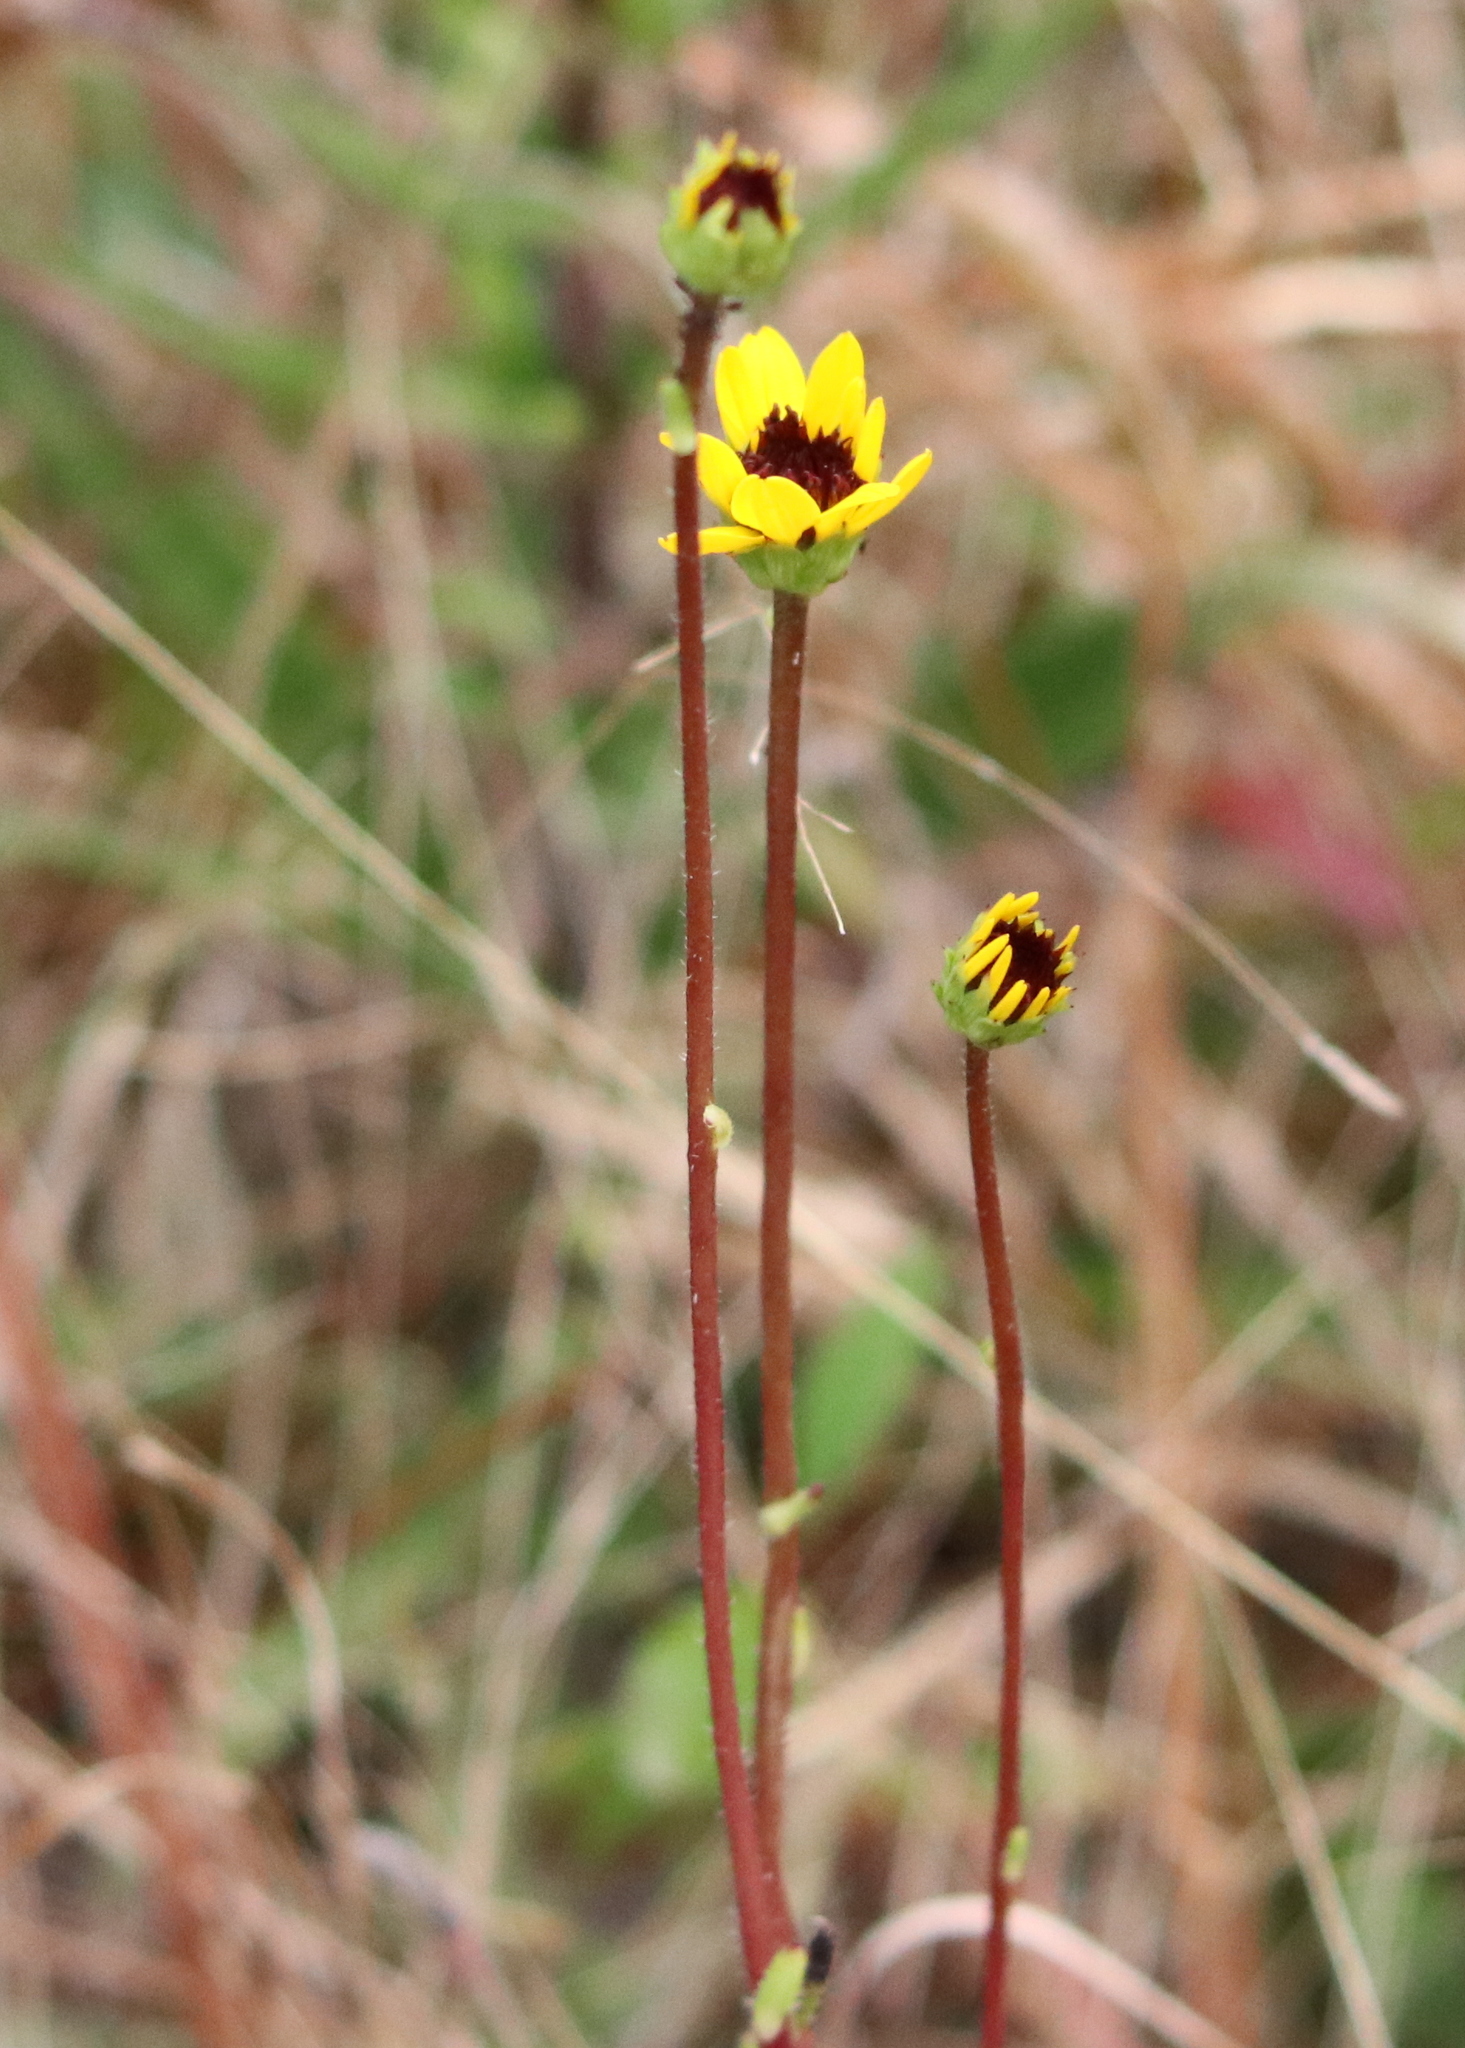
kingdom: Plantae
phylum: Tracheophyta
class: Magnoliopsida
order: Asterales
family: Asteraceae
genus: Helianthus
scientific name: Helianthus heterophyllus
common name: Wetland sunflower
